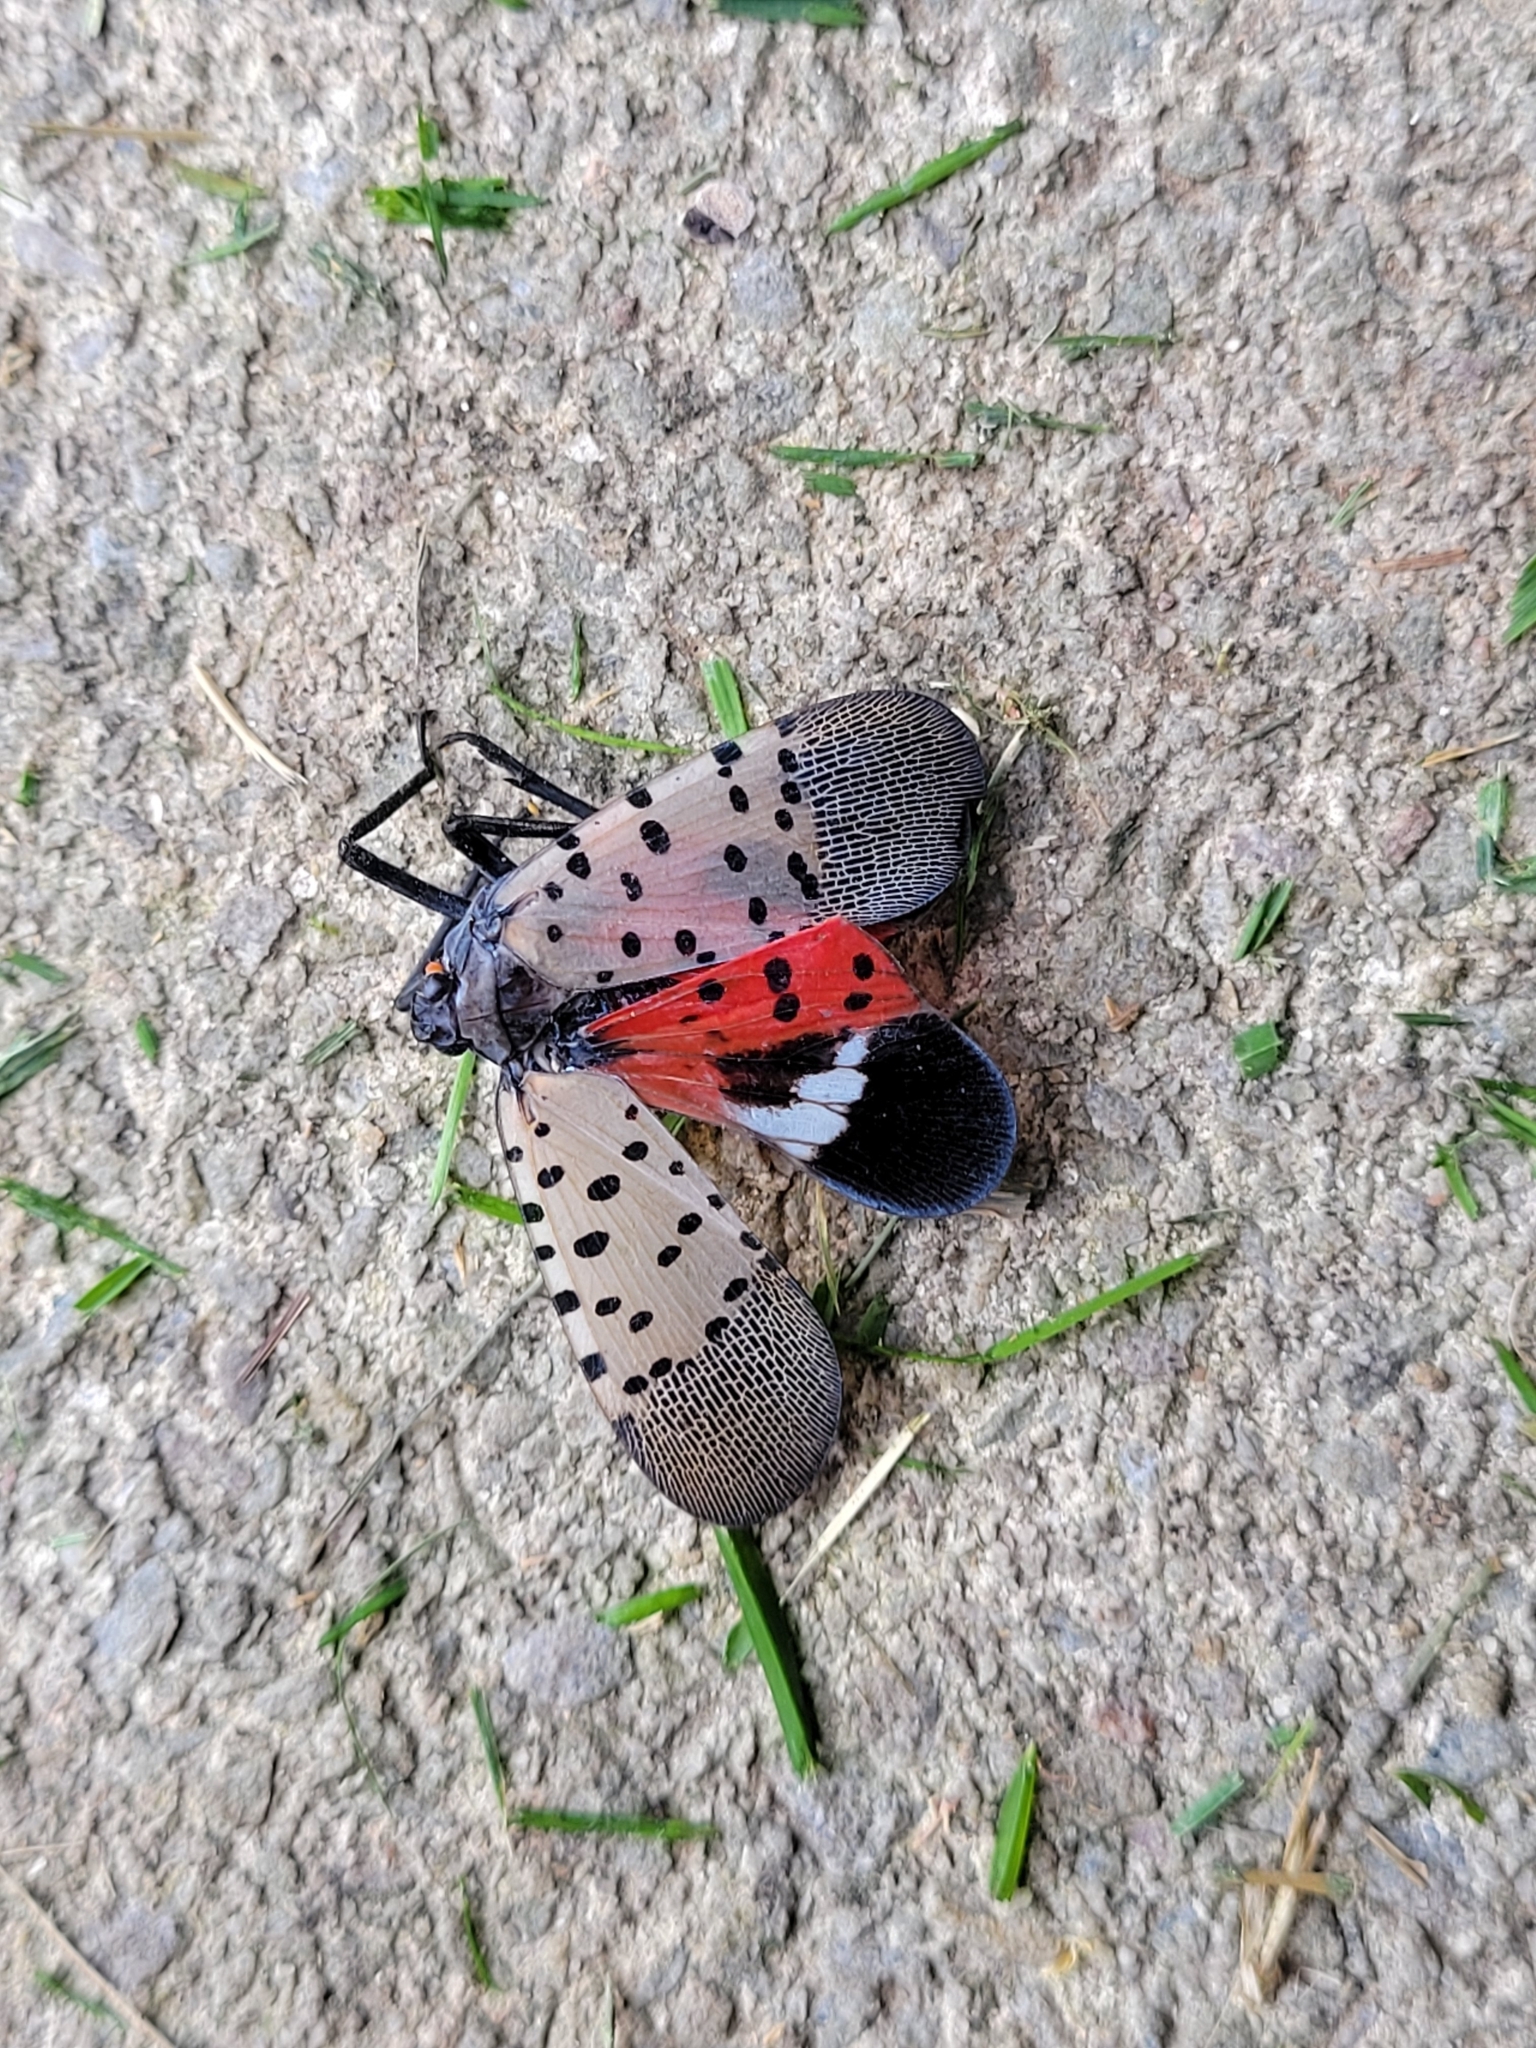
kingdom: Animalia
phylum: Arthropoda
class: Insecta
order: Hemiptera
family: Fulgoridae
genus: Lycorma
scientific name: Lycorma delicatula
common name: Spotted lanternfly
